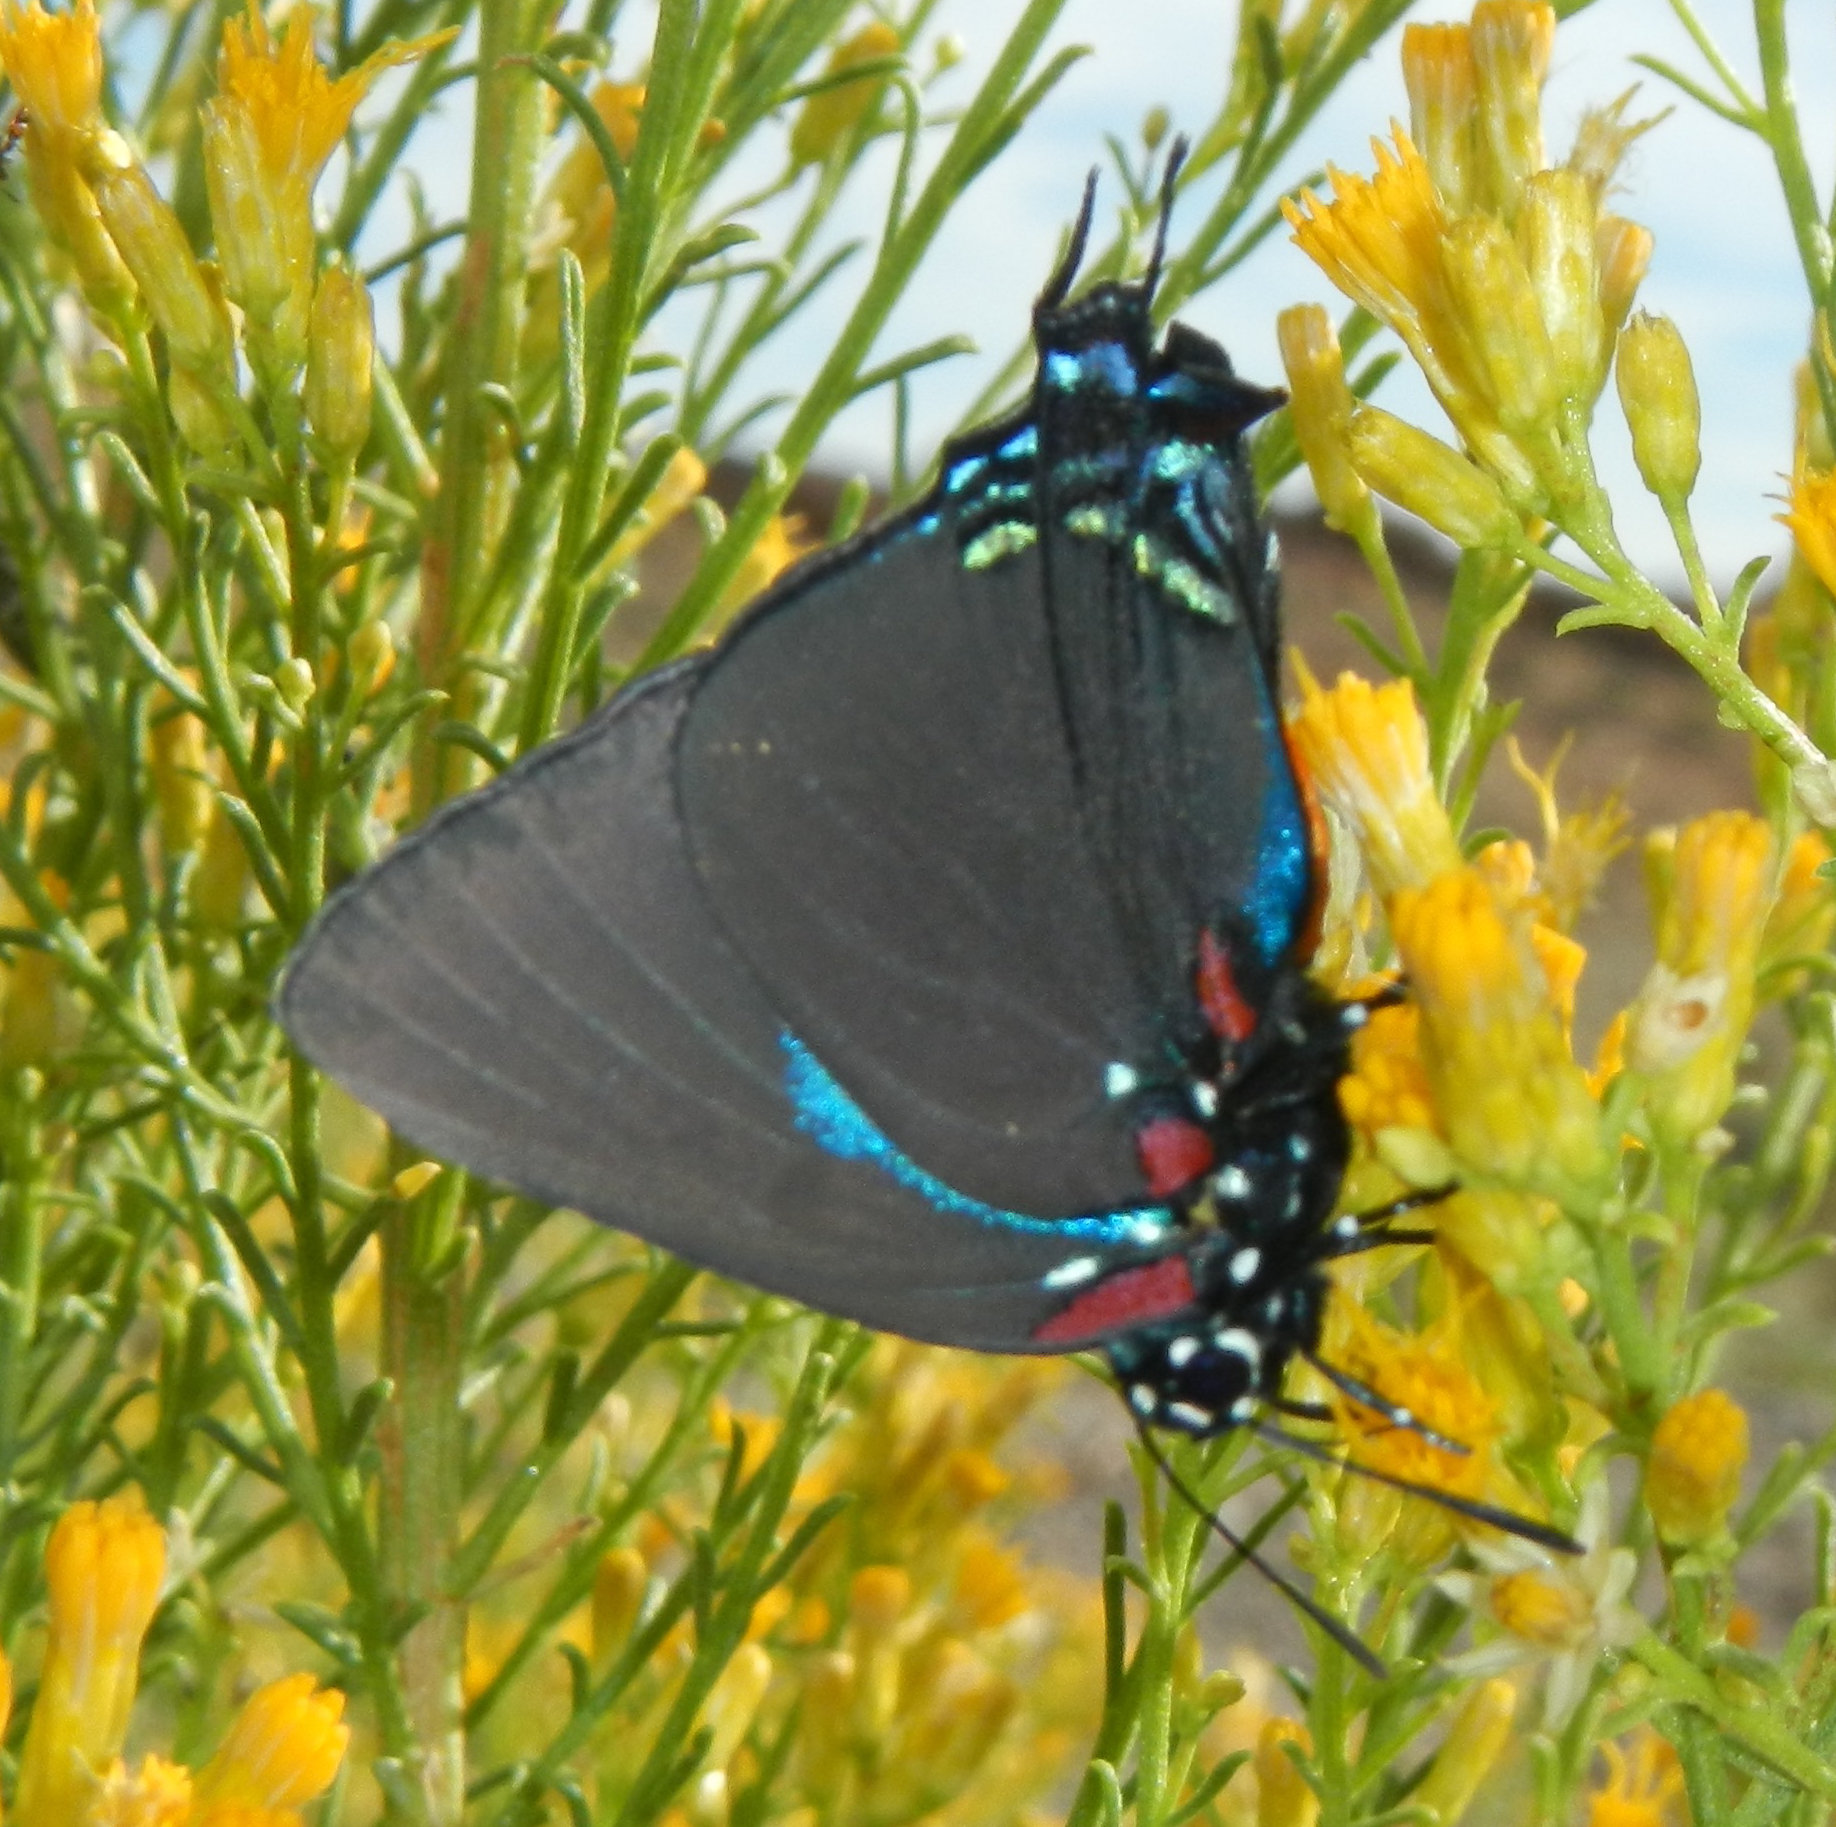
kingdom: Animalia
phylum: Arthropoda
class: Insecta
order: Lepidoptera
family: Lycaenidae
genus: Atlides
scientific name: Atlides halesus
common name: Great purple hairstreak
